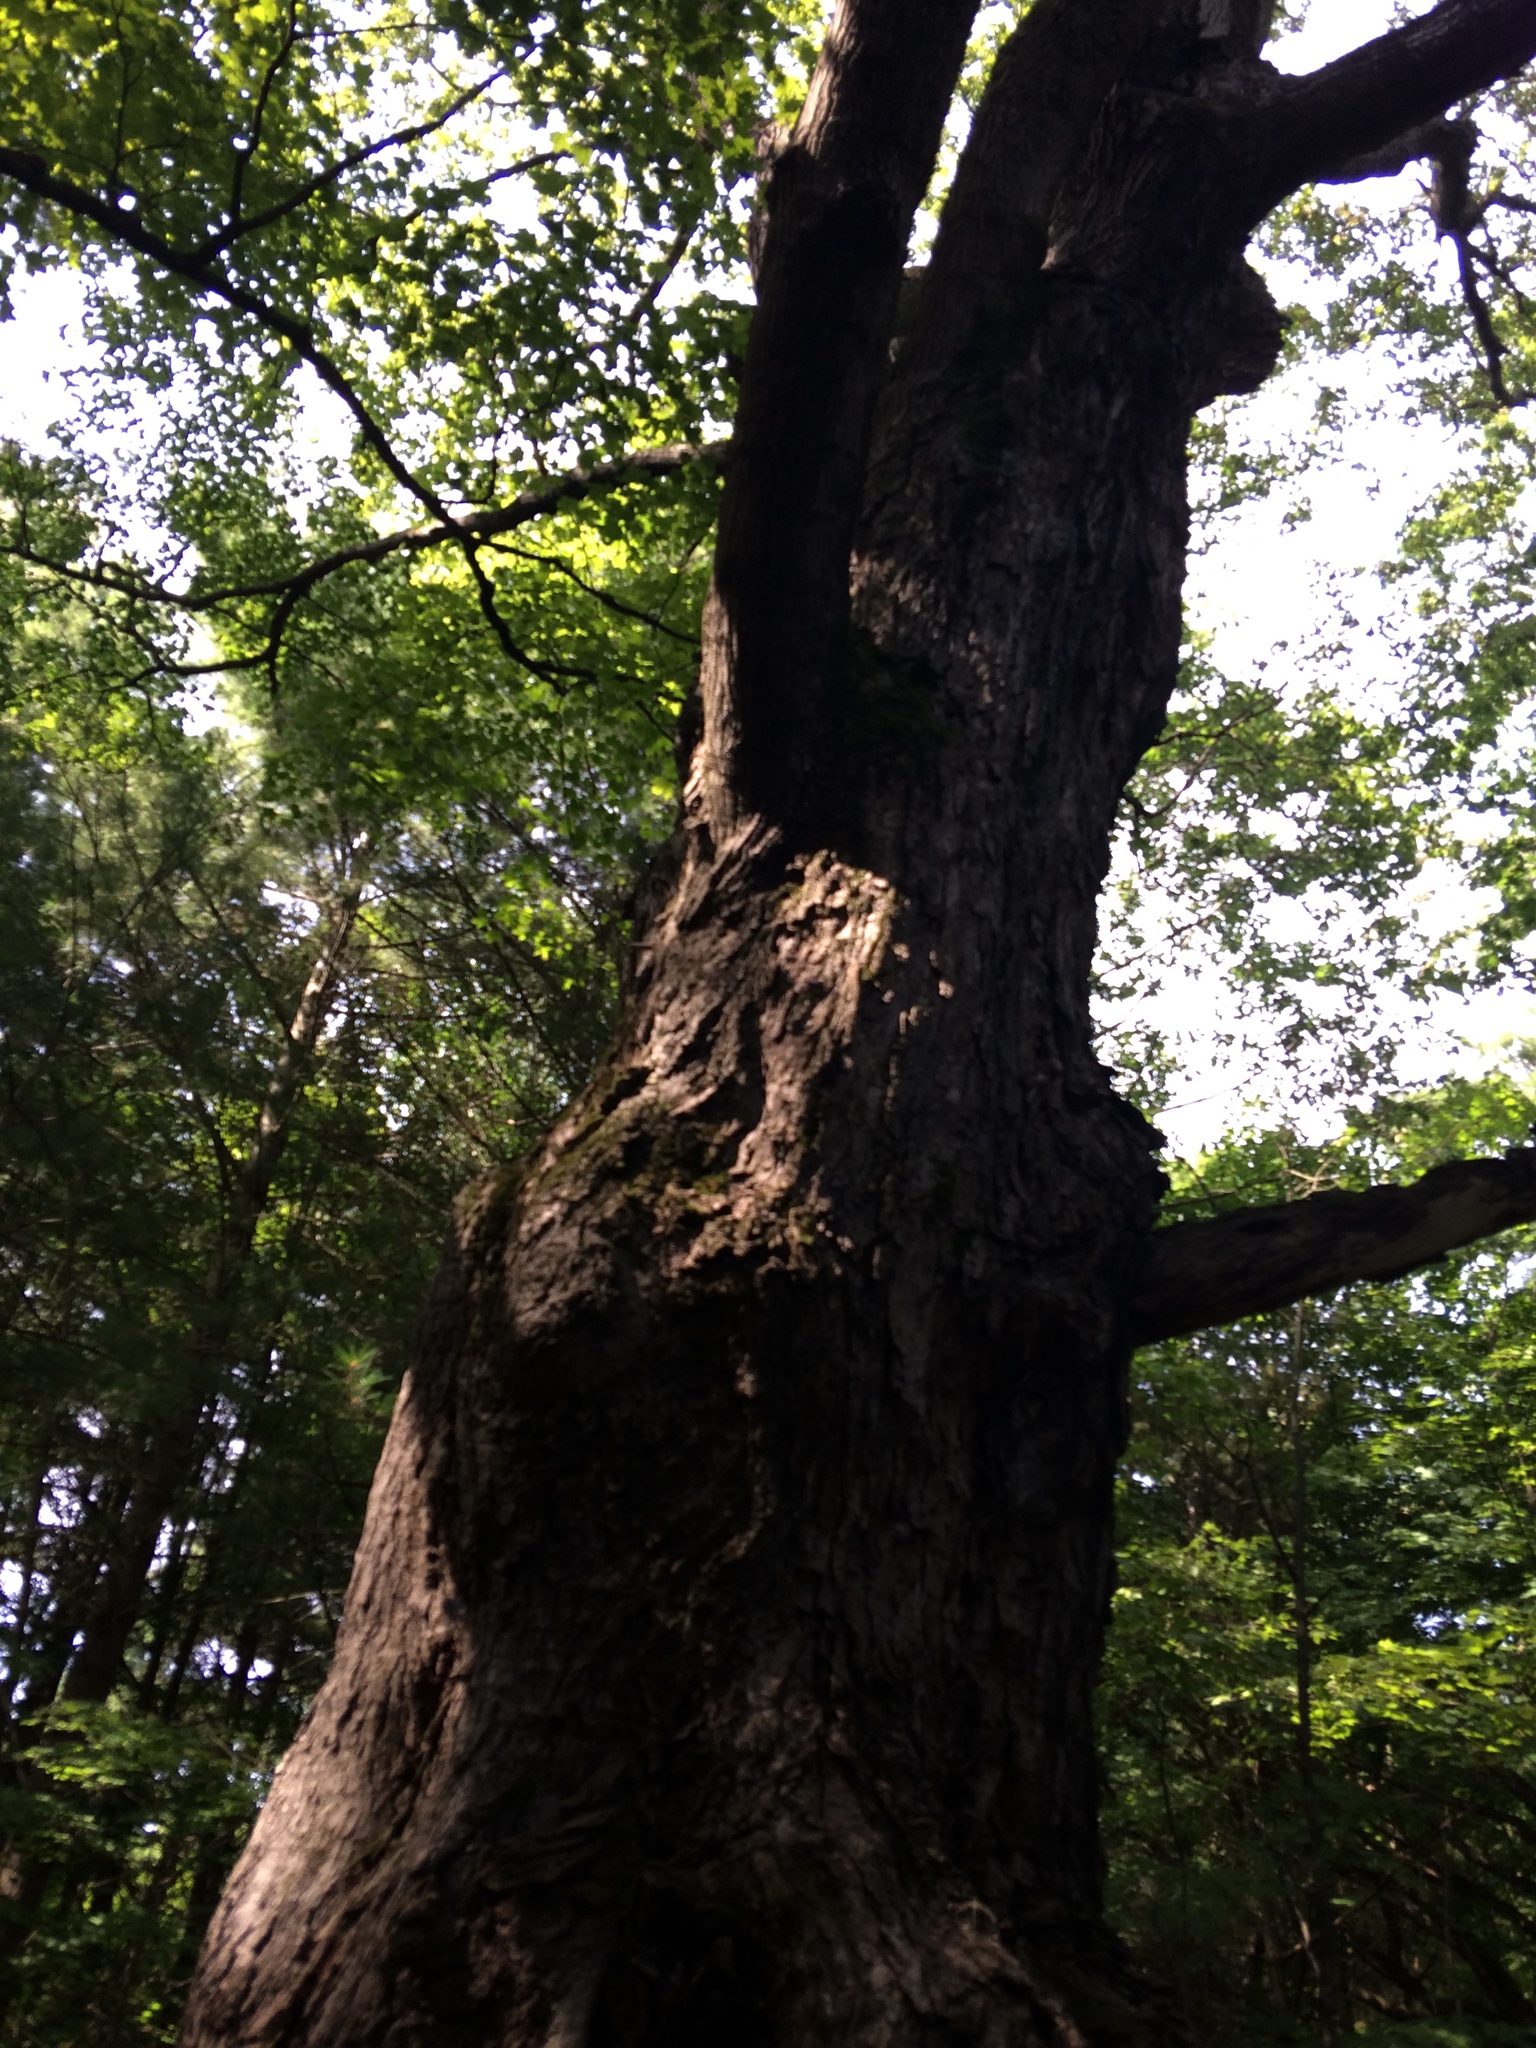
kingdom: Plantae
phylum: Tracheophyta
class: Magnoliopsida
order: Sapindales
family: Sapindaceae
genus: Acer
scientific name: Acer saccharum
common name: Sugar maple
